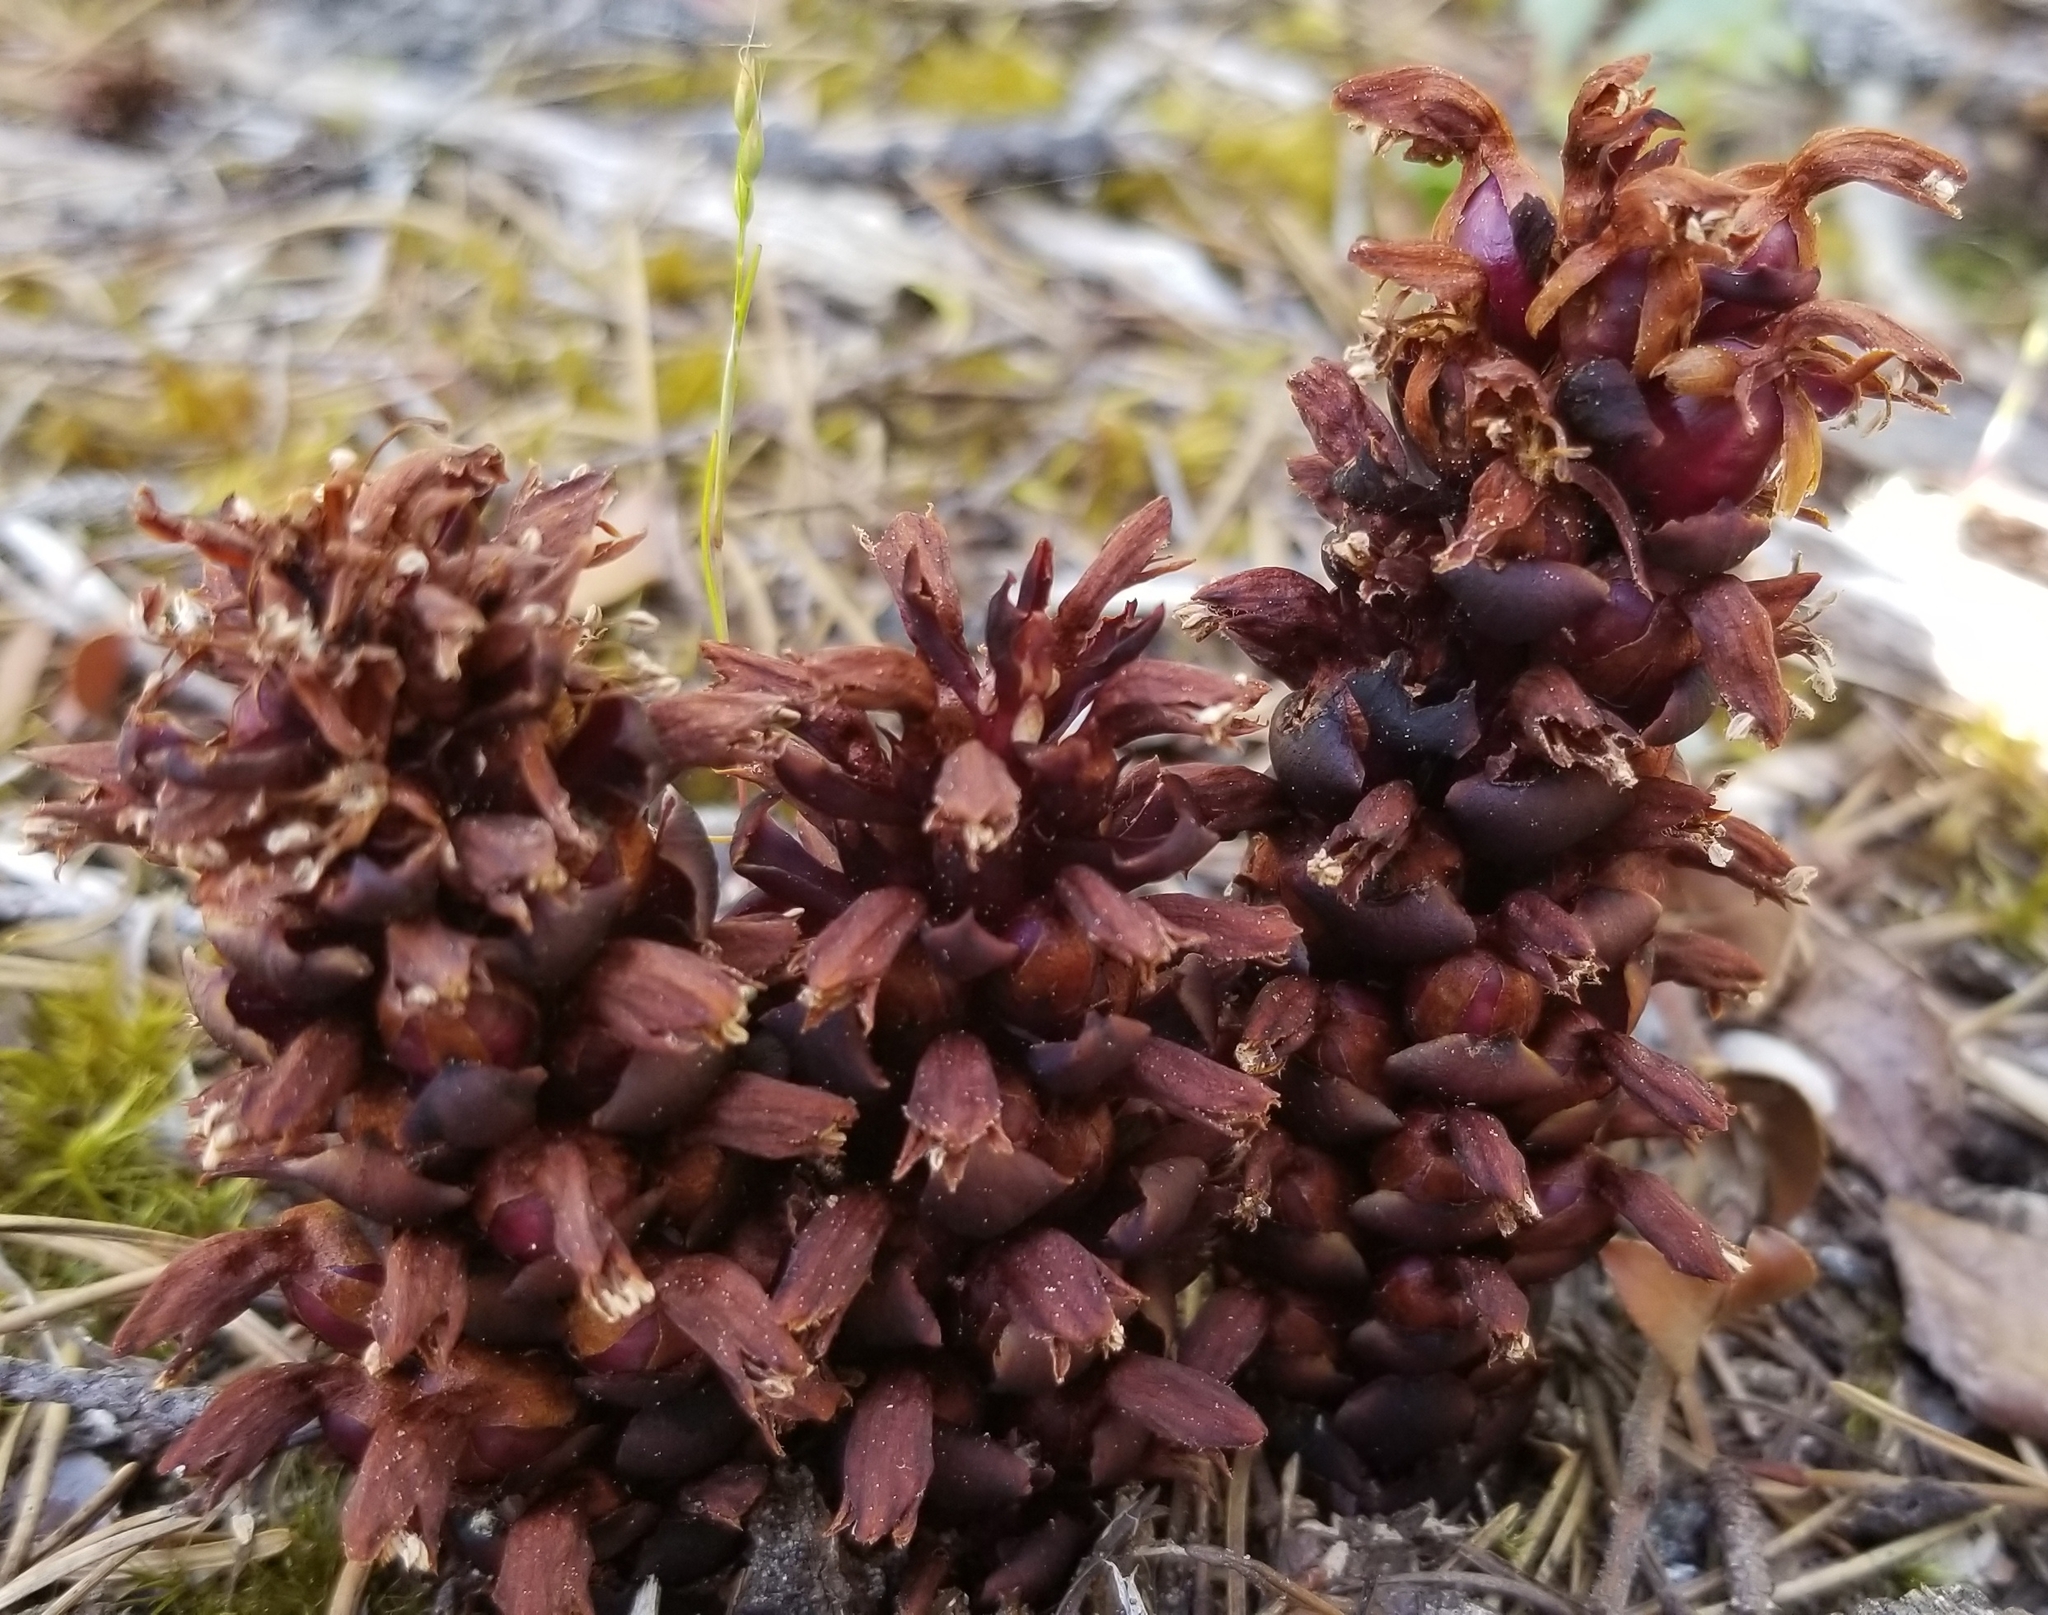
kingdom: Plantae
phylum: Tracheophyta
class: Magnoliopsida
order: Lamiales
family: Orobanchaceae
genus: Kopsiopsis
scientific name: Kopsiopsis hookeri
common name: Hooker's groundcone
